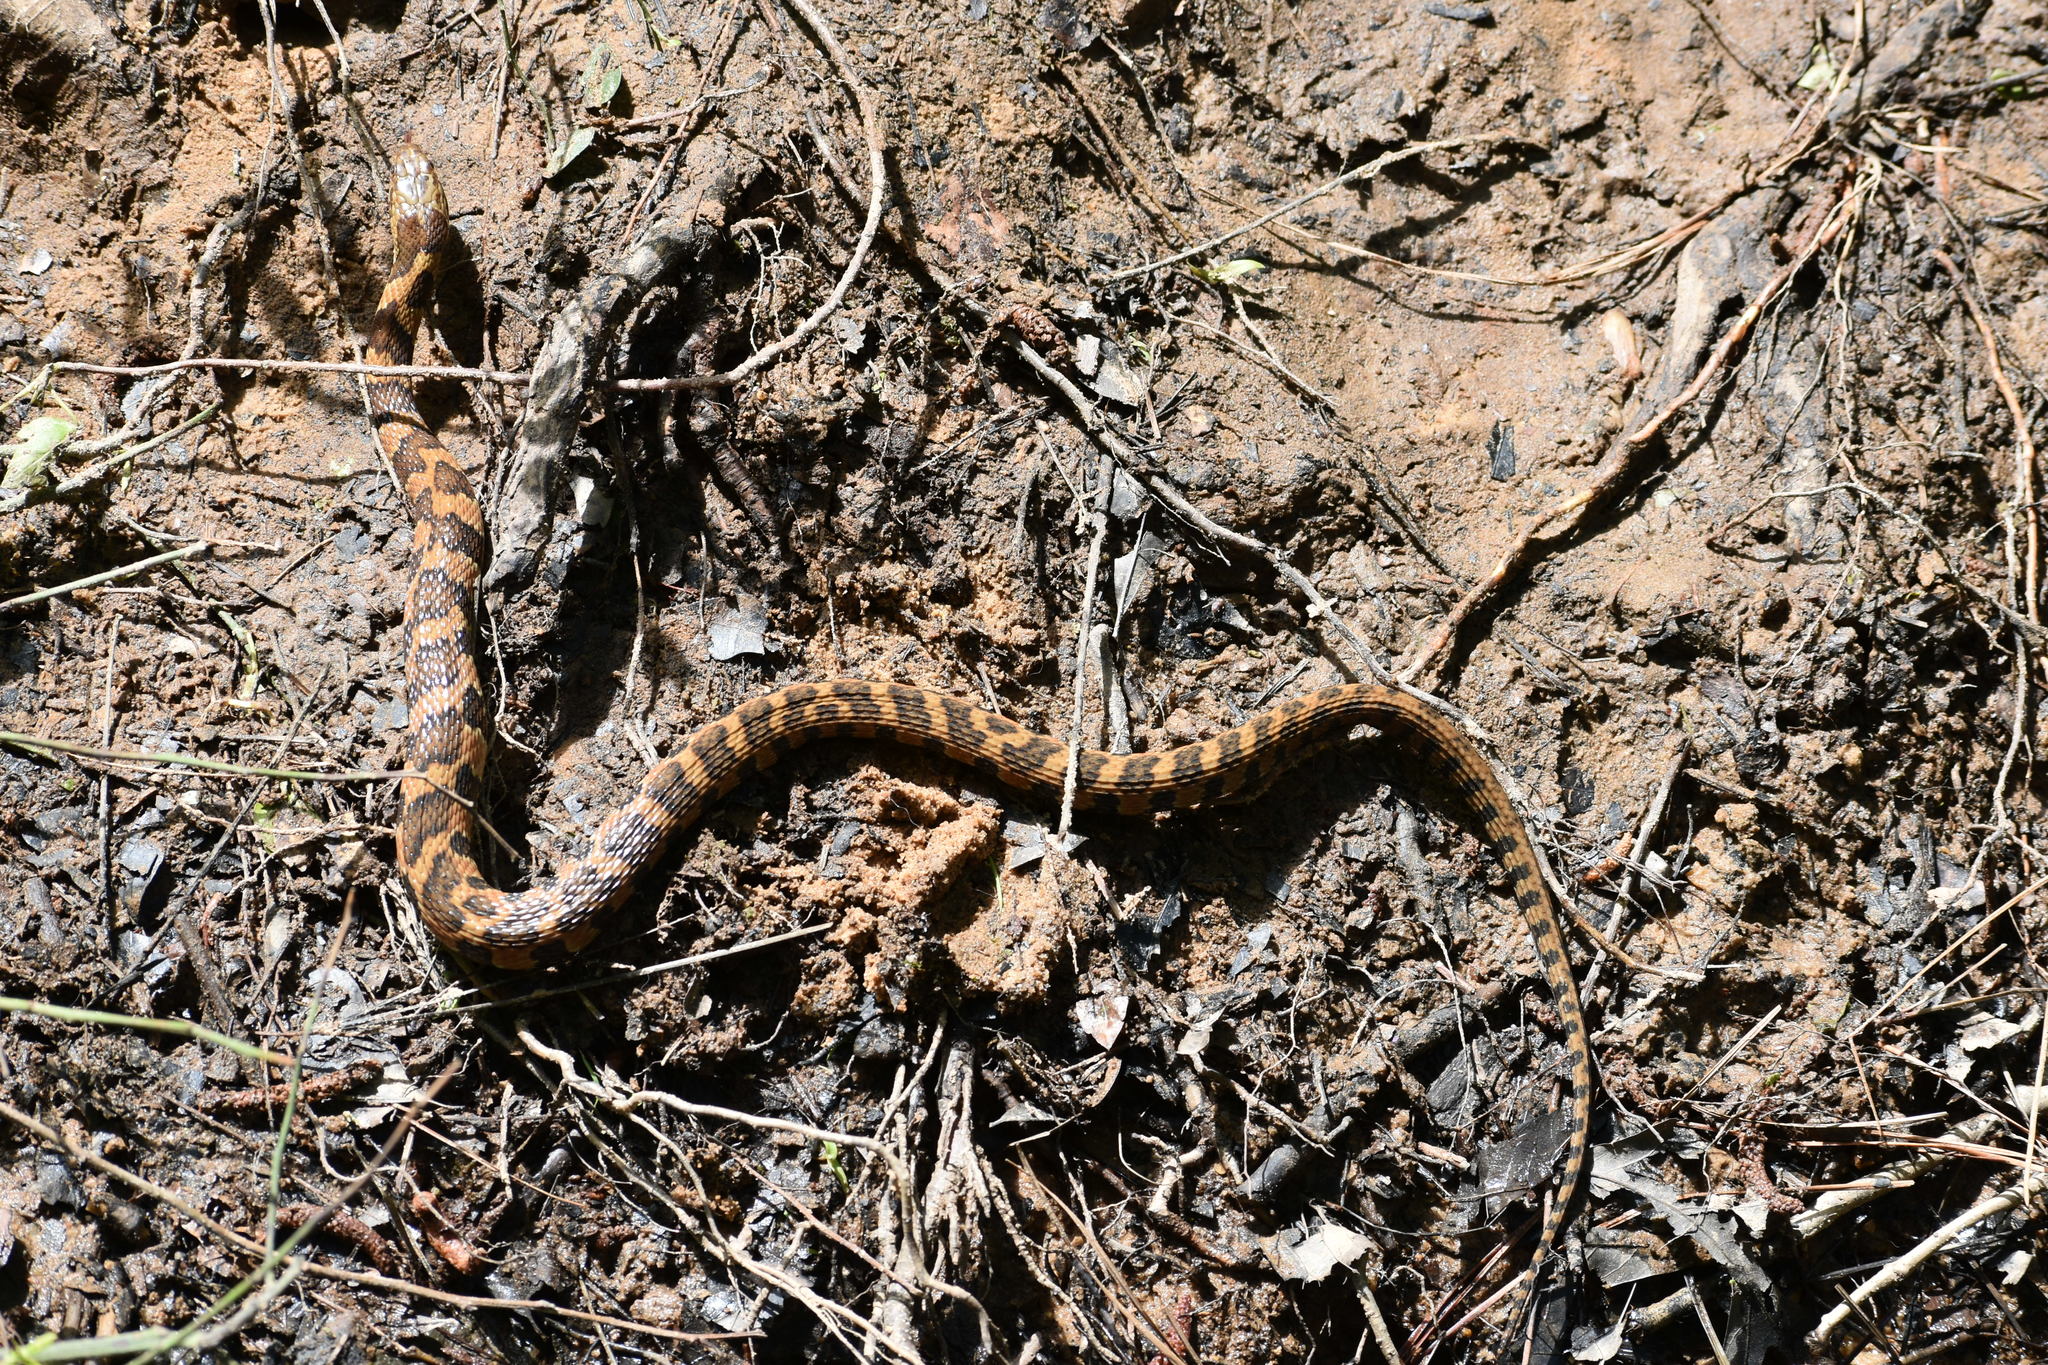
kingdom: Animalia
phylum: Chordata
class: Squamata
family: Colubridae
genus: Nerodia
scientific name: Nerodia sipedon
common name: Northern water snake
